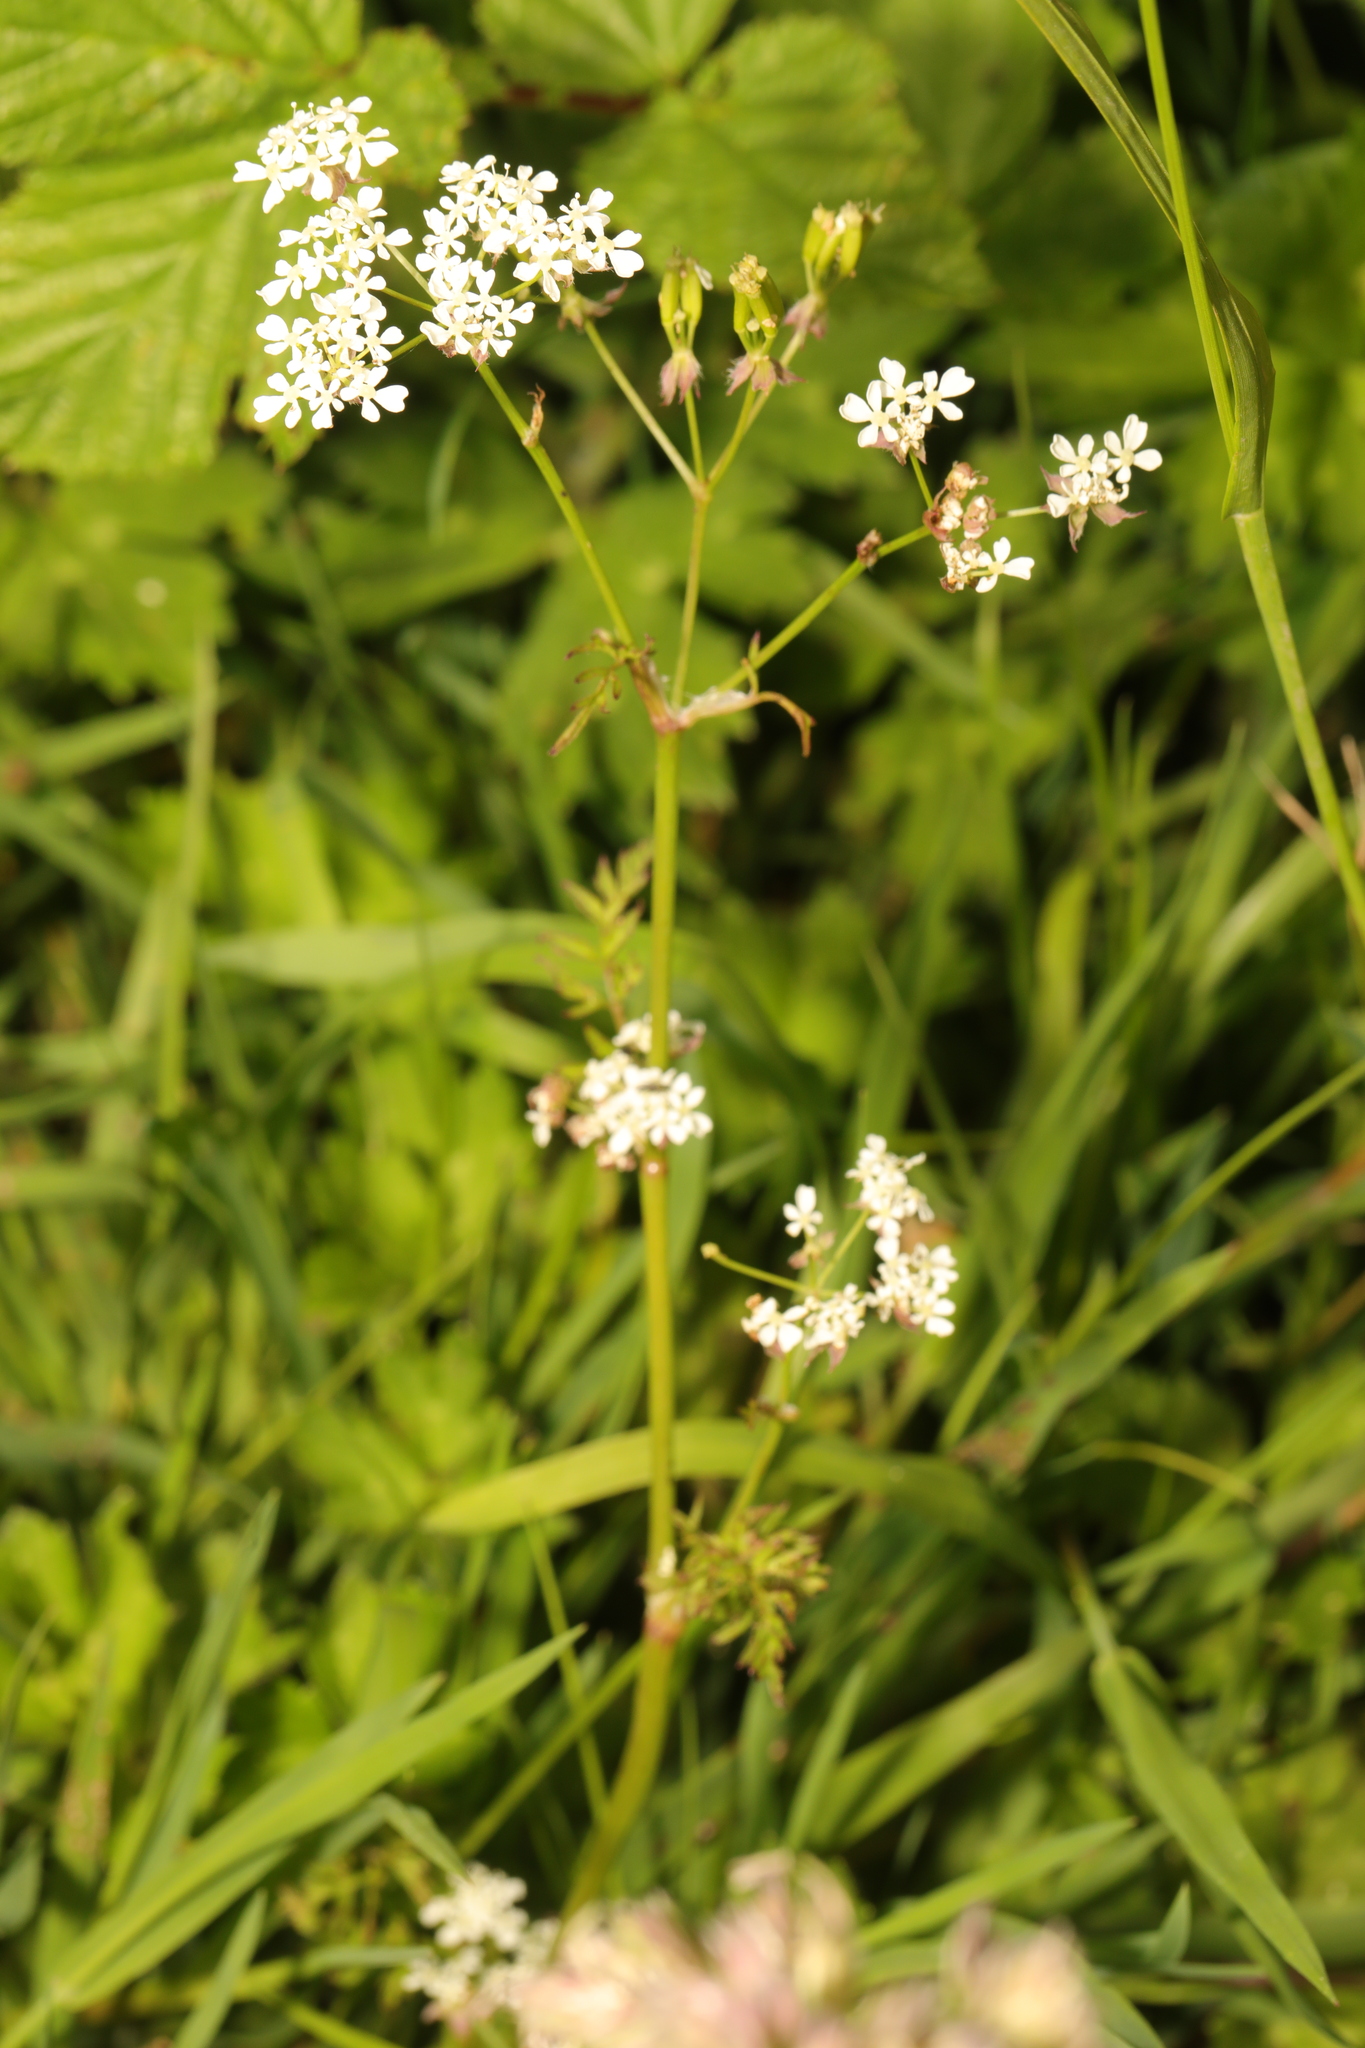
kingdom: Plantae
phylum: Tracheophyta
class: Magnoliopsida
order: Apiales
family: Apiaceae
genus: Anthriscus
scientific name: Anthriscus sylvestris
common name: Cow parsley
